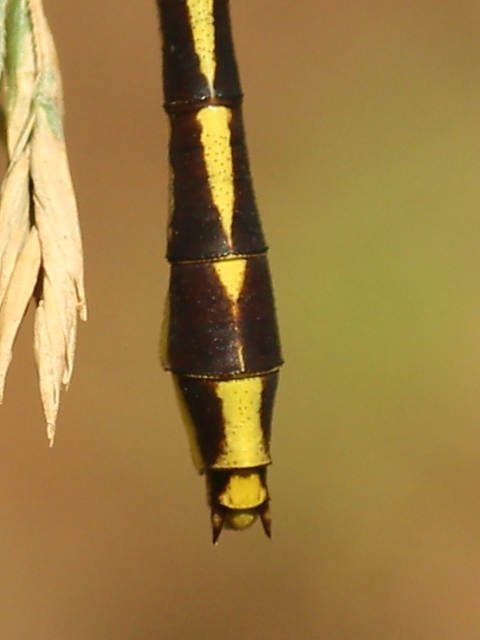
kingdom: Animalia
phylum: Arthropoda
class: Insecta
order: Odonata
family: Gomphidae
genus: Phanogomphus
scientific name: Phanogomphus graslinellus
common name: Pronghorn clubtail
